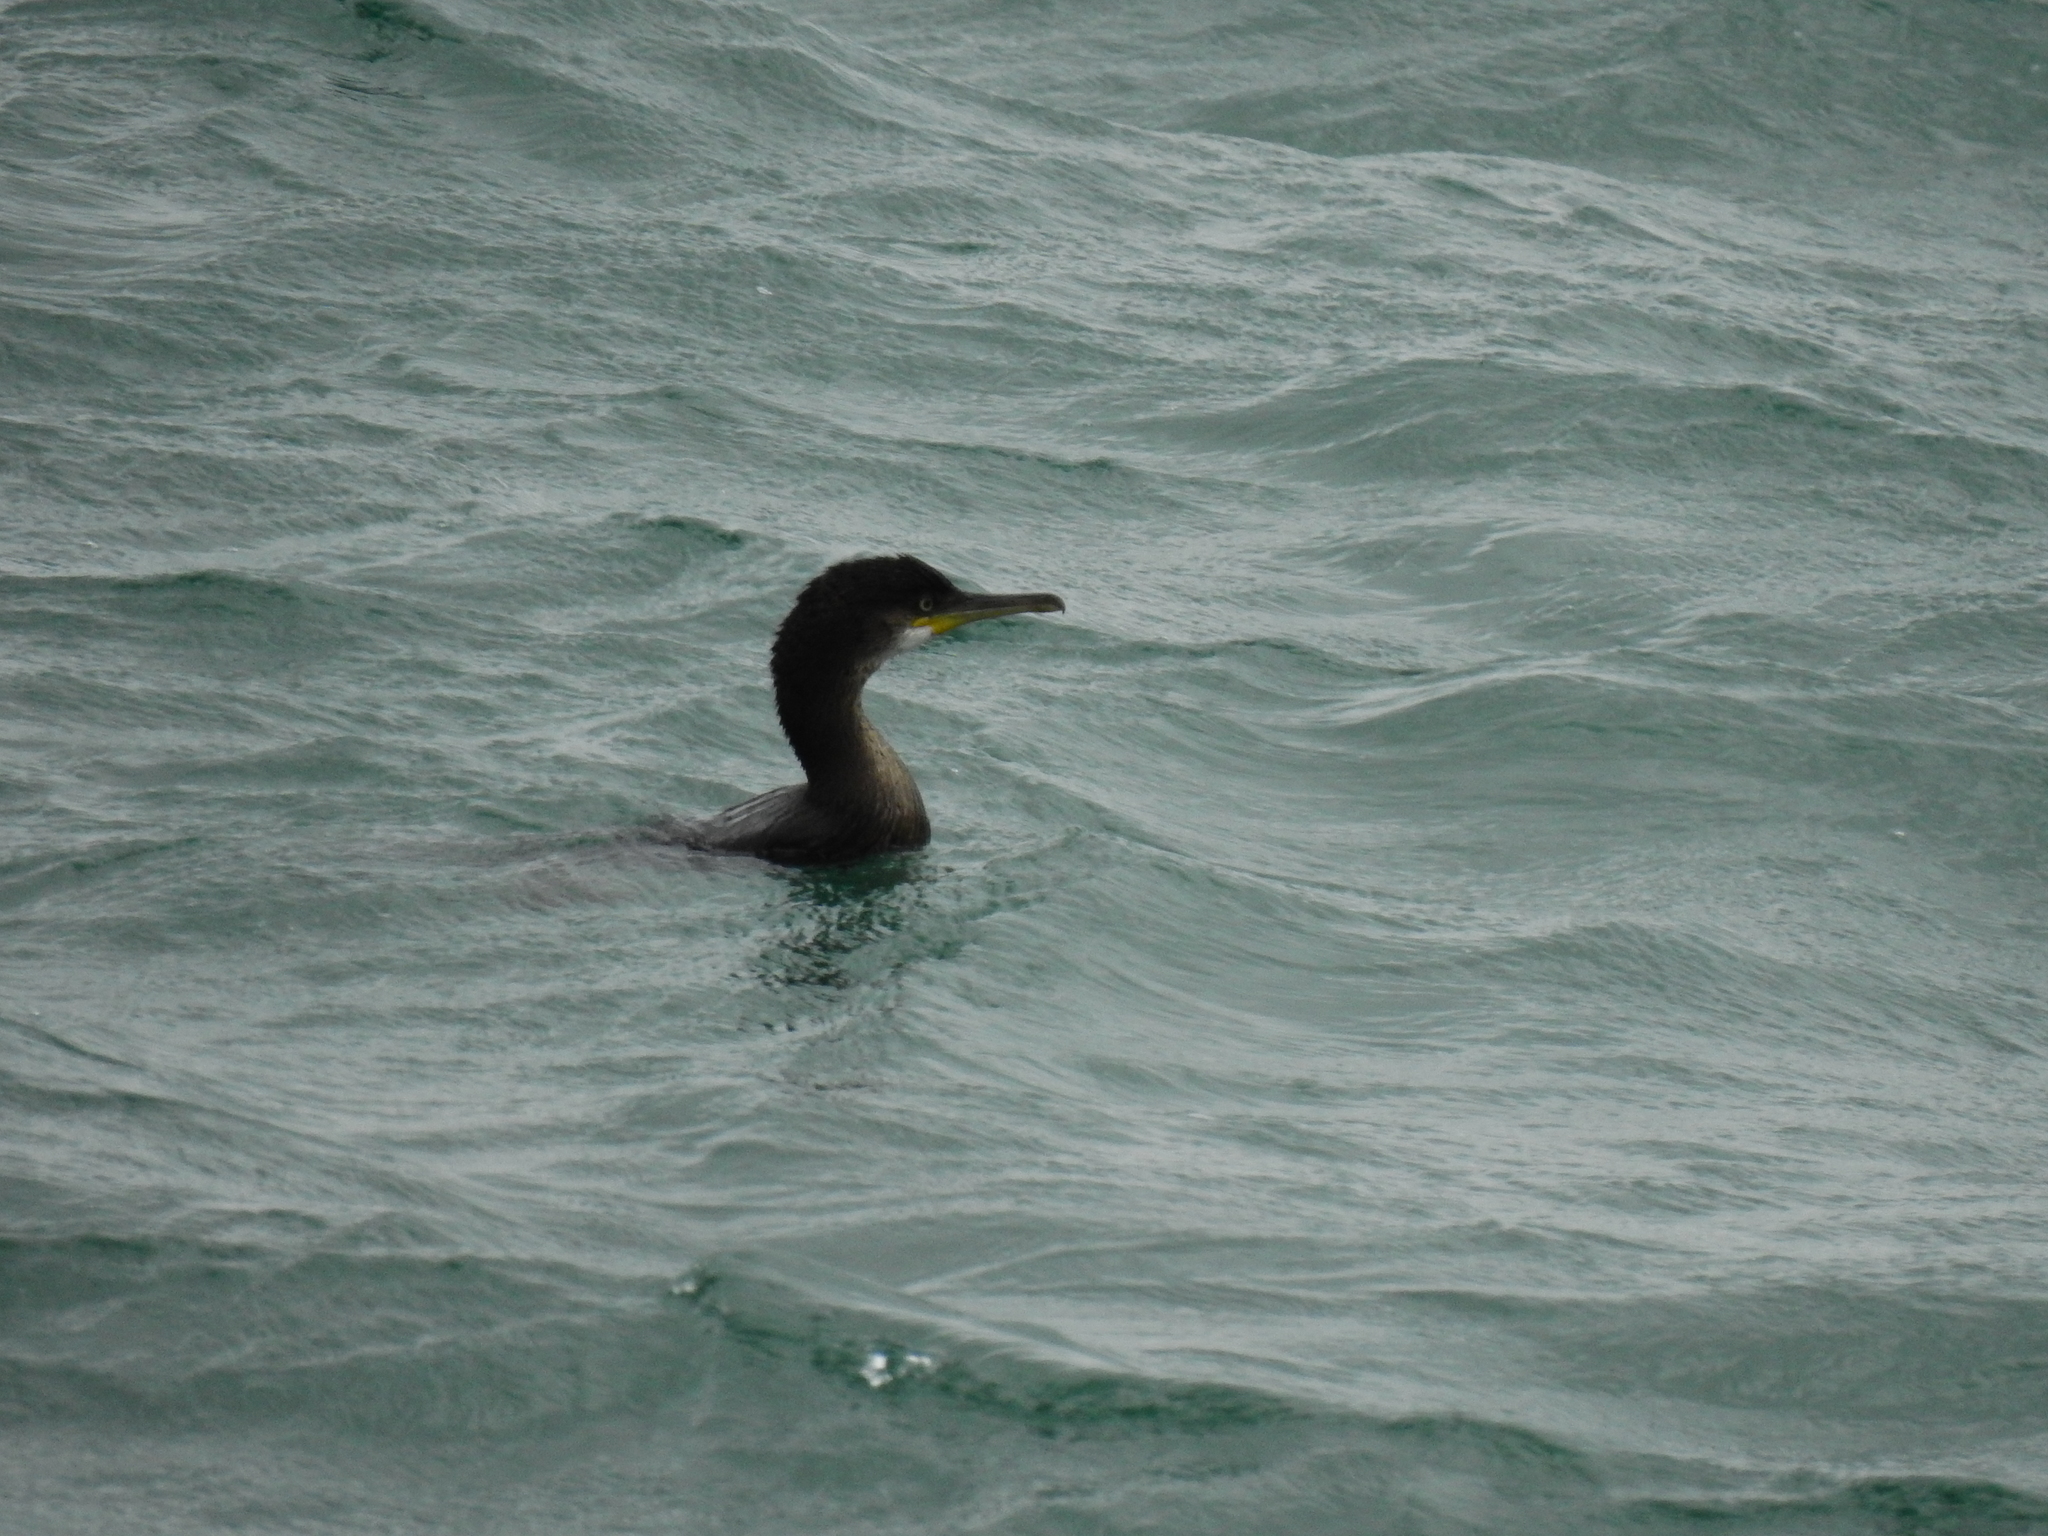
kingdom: Animalia
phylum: Chordata
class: Aves
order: Suliformes
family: Phalacrocoracidae
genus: Phalacrocorax
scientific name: Phalacrocorax aristotelis
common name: European shag
